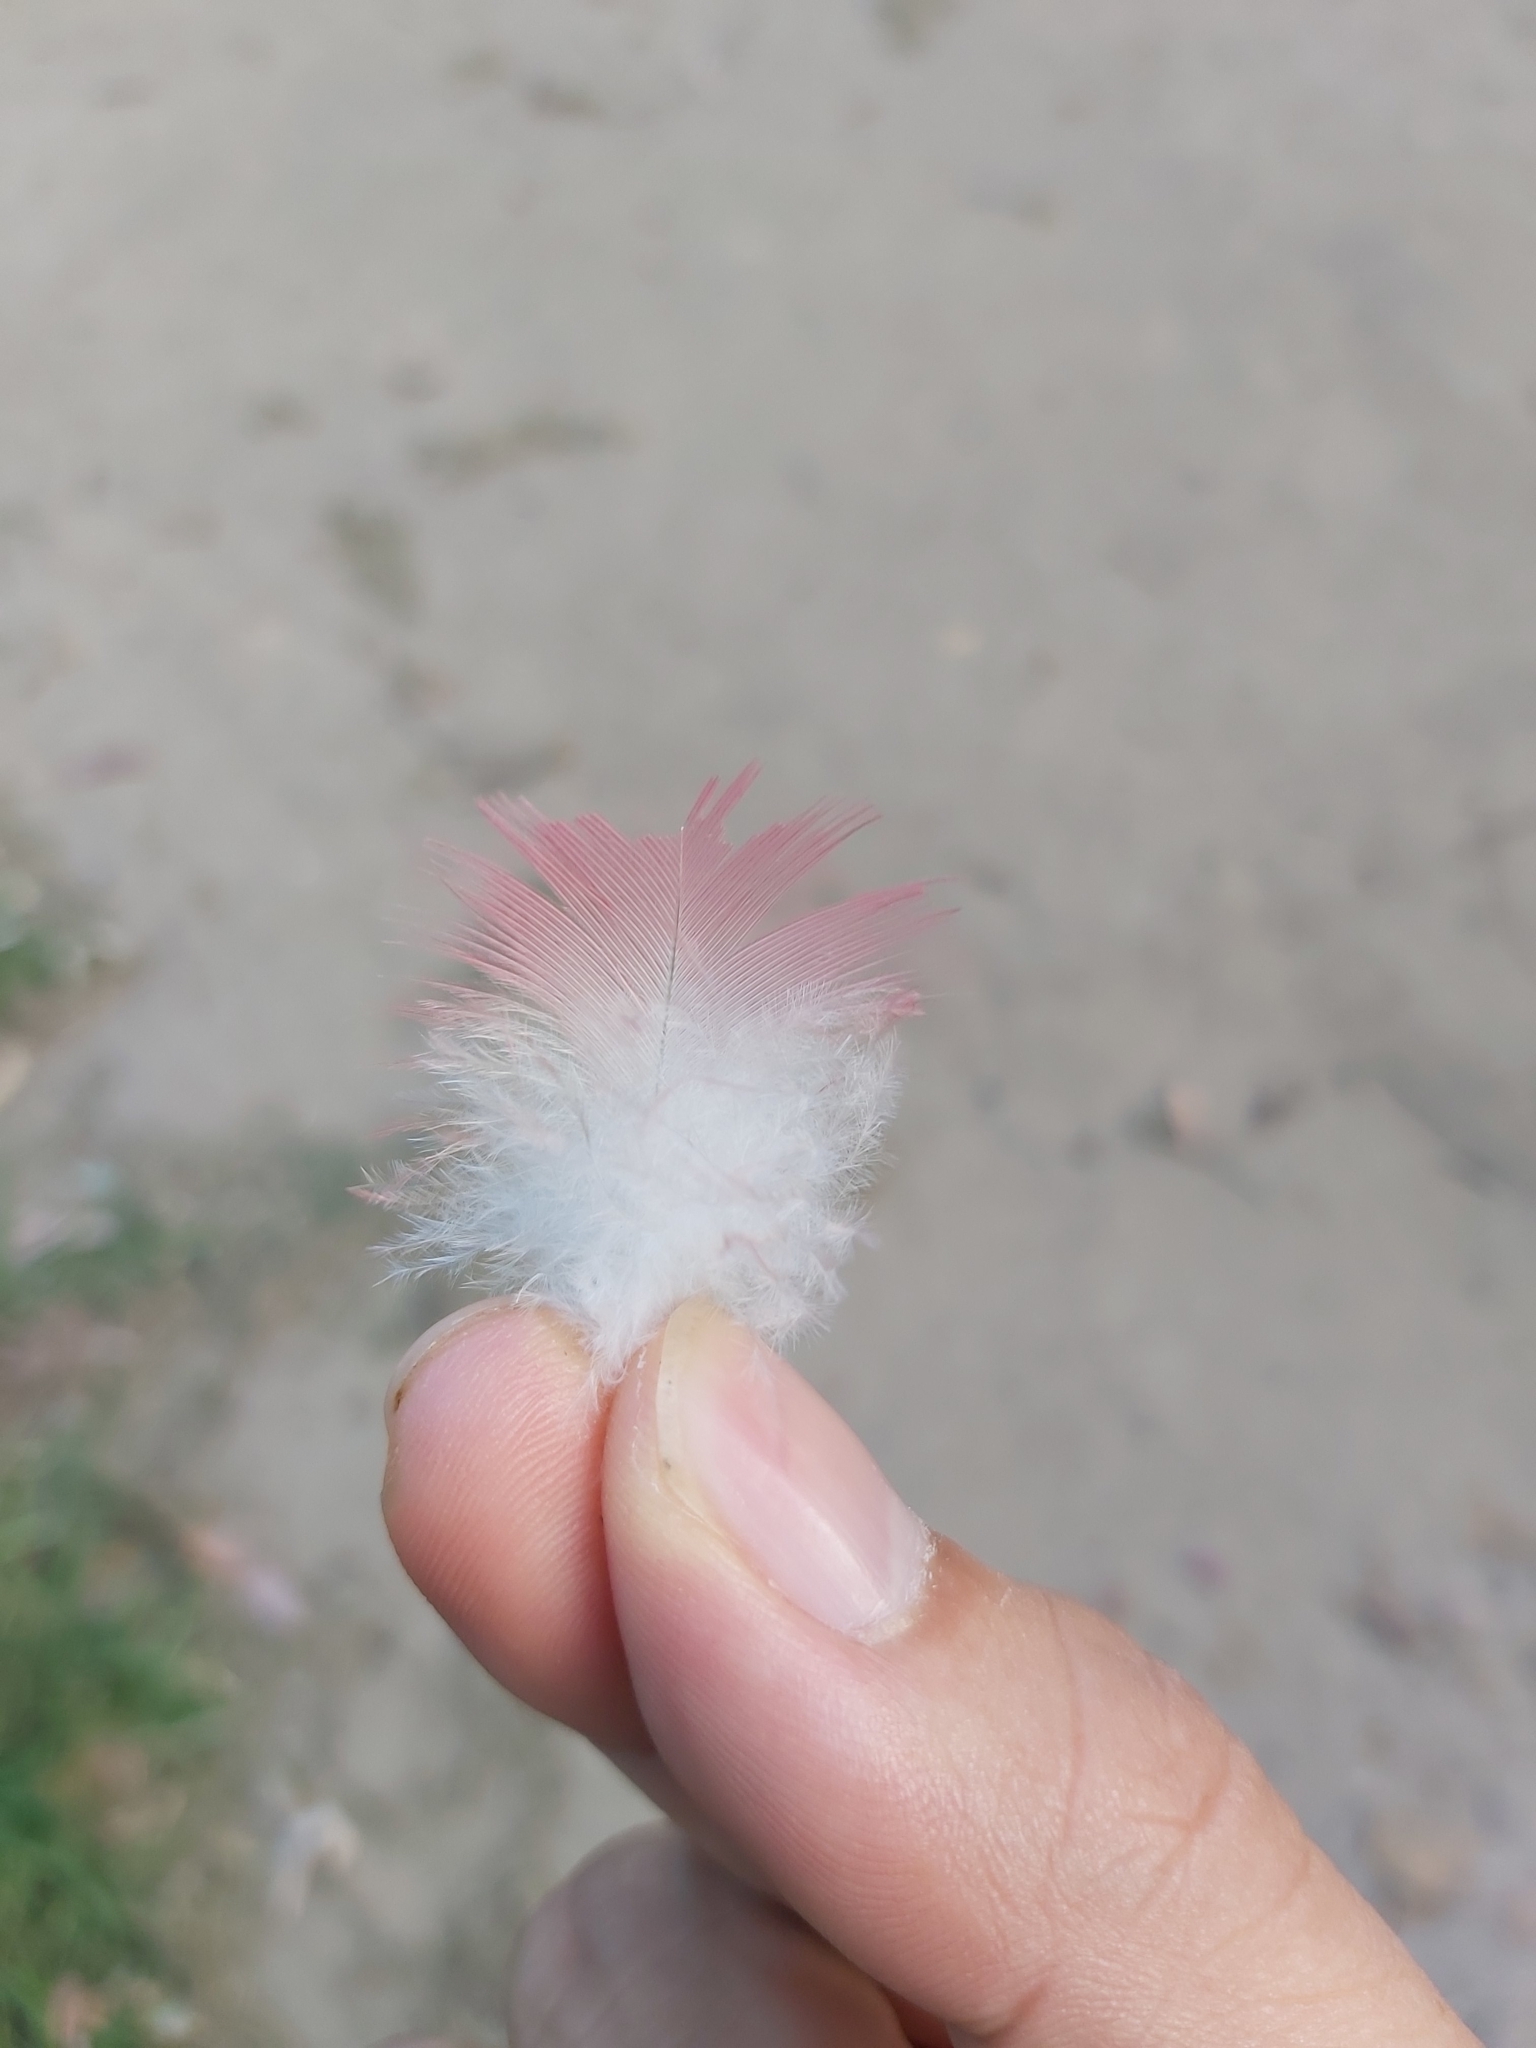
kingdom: Animalia
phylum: Chordata
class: Aves
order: Psittaciformes
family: Psittacidae
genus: Eolophus
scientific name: Eolophus roseicapilla
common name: Galah
